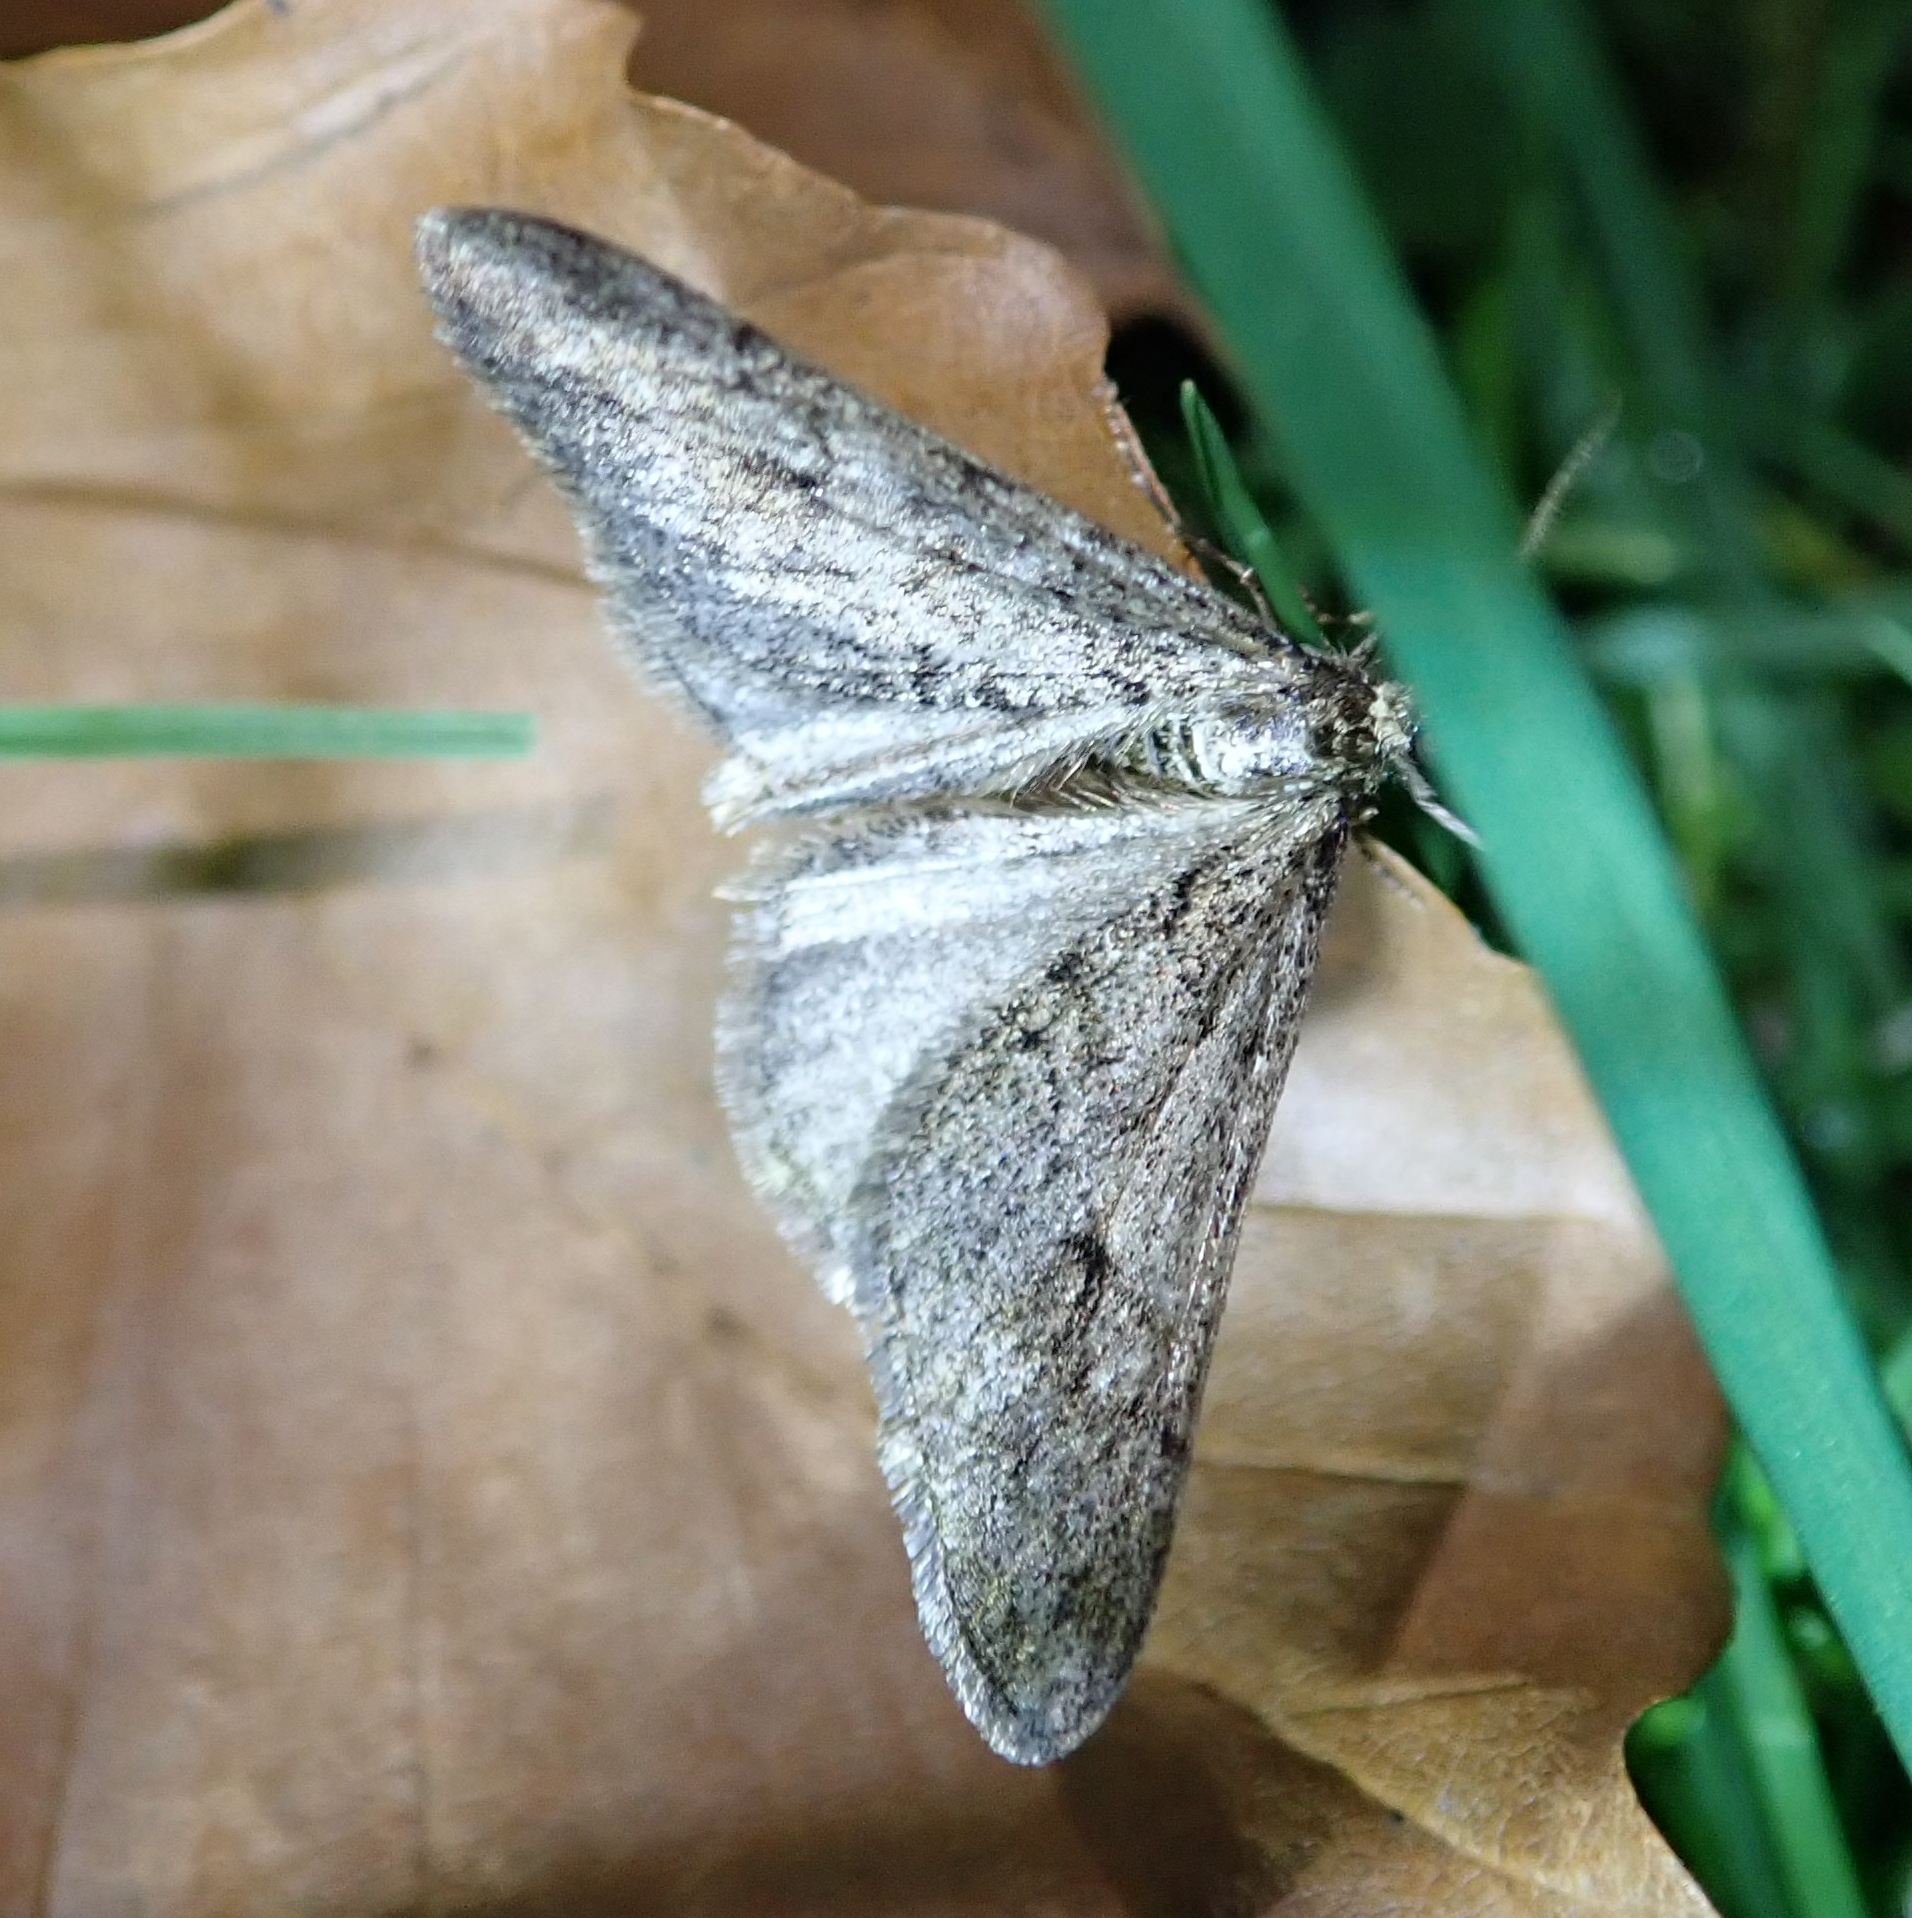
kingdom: Animalia
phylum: Arthropoda
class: Insecta
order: Lepidoptera
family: Geometridae
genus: Agriopis
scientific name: Agriopis leucophaearia
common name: Spring usher
